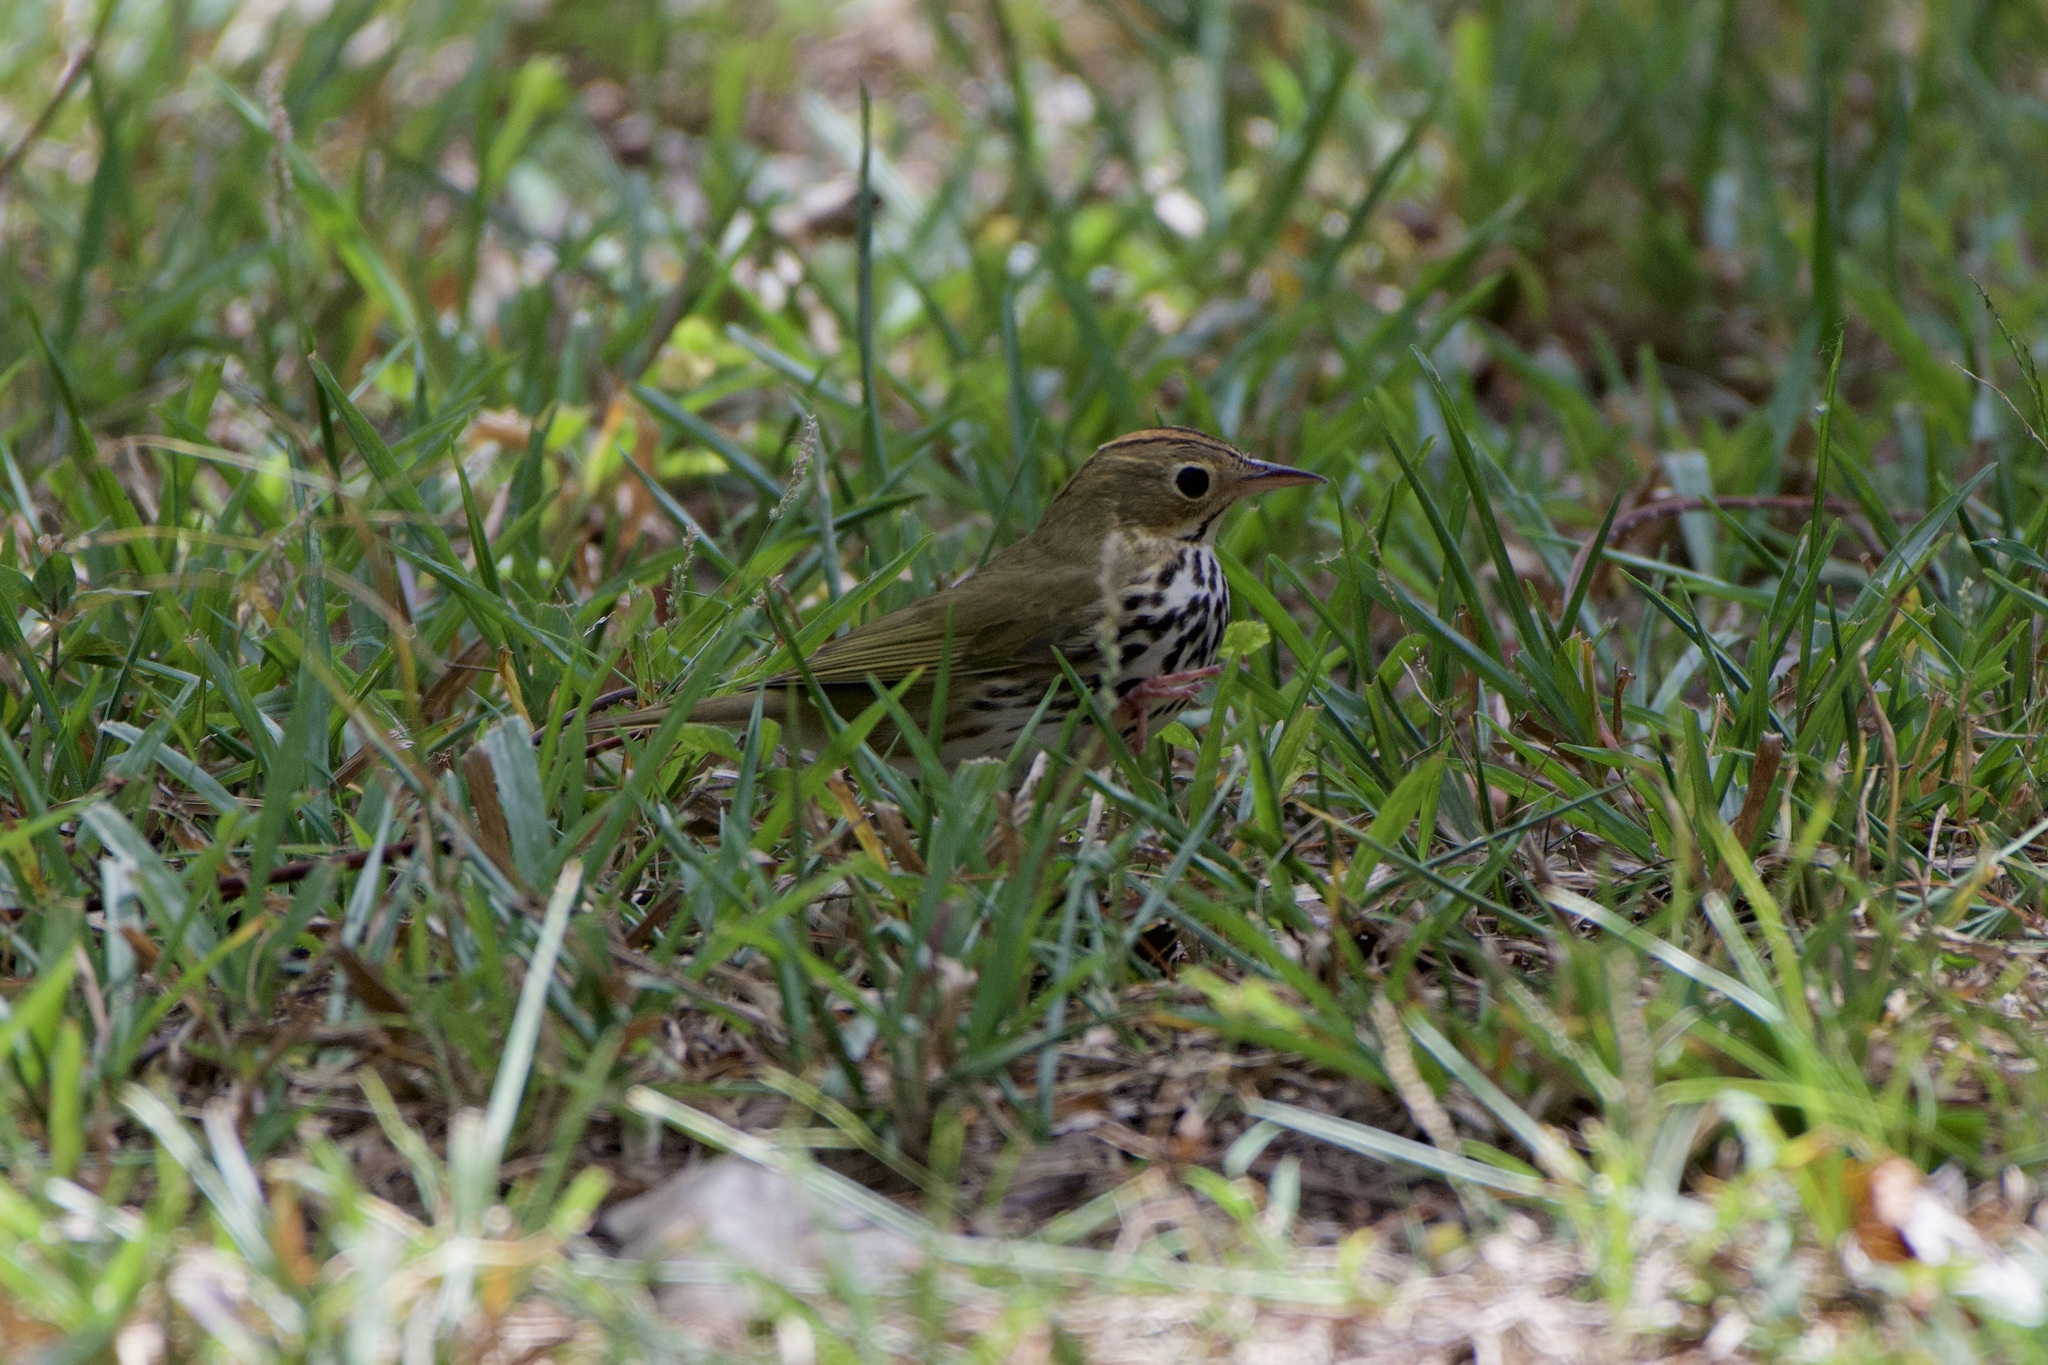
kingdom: Animalia
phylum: Chordata
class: Aves
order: Passeriformes
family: Parulidae
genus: Seiurus
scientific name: Seiurus aurocapilla
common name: Ovenbird
